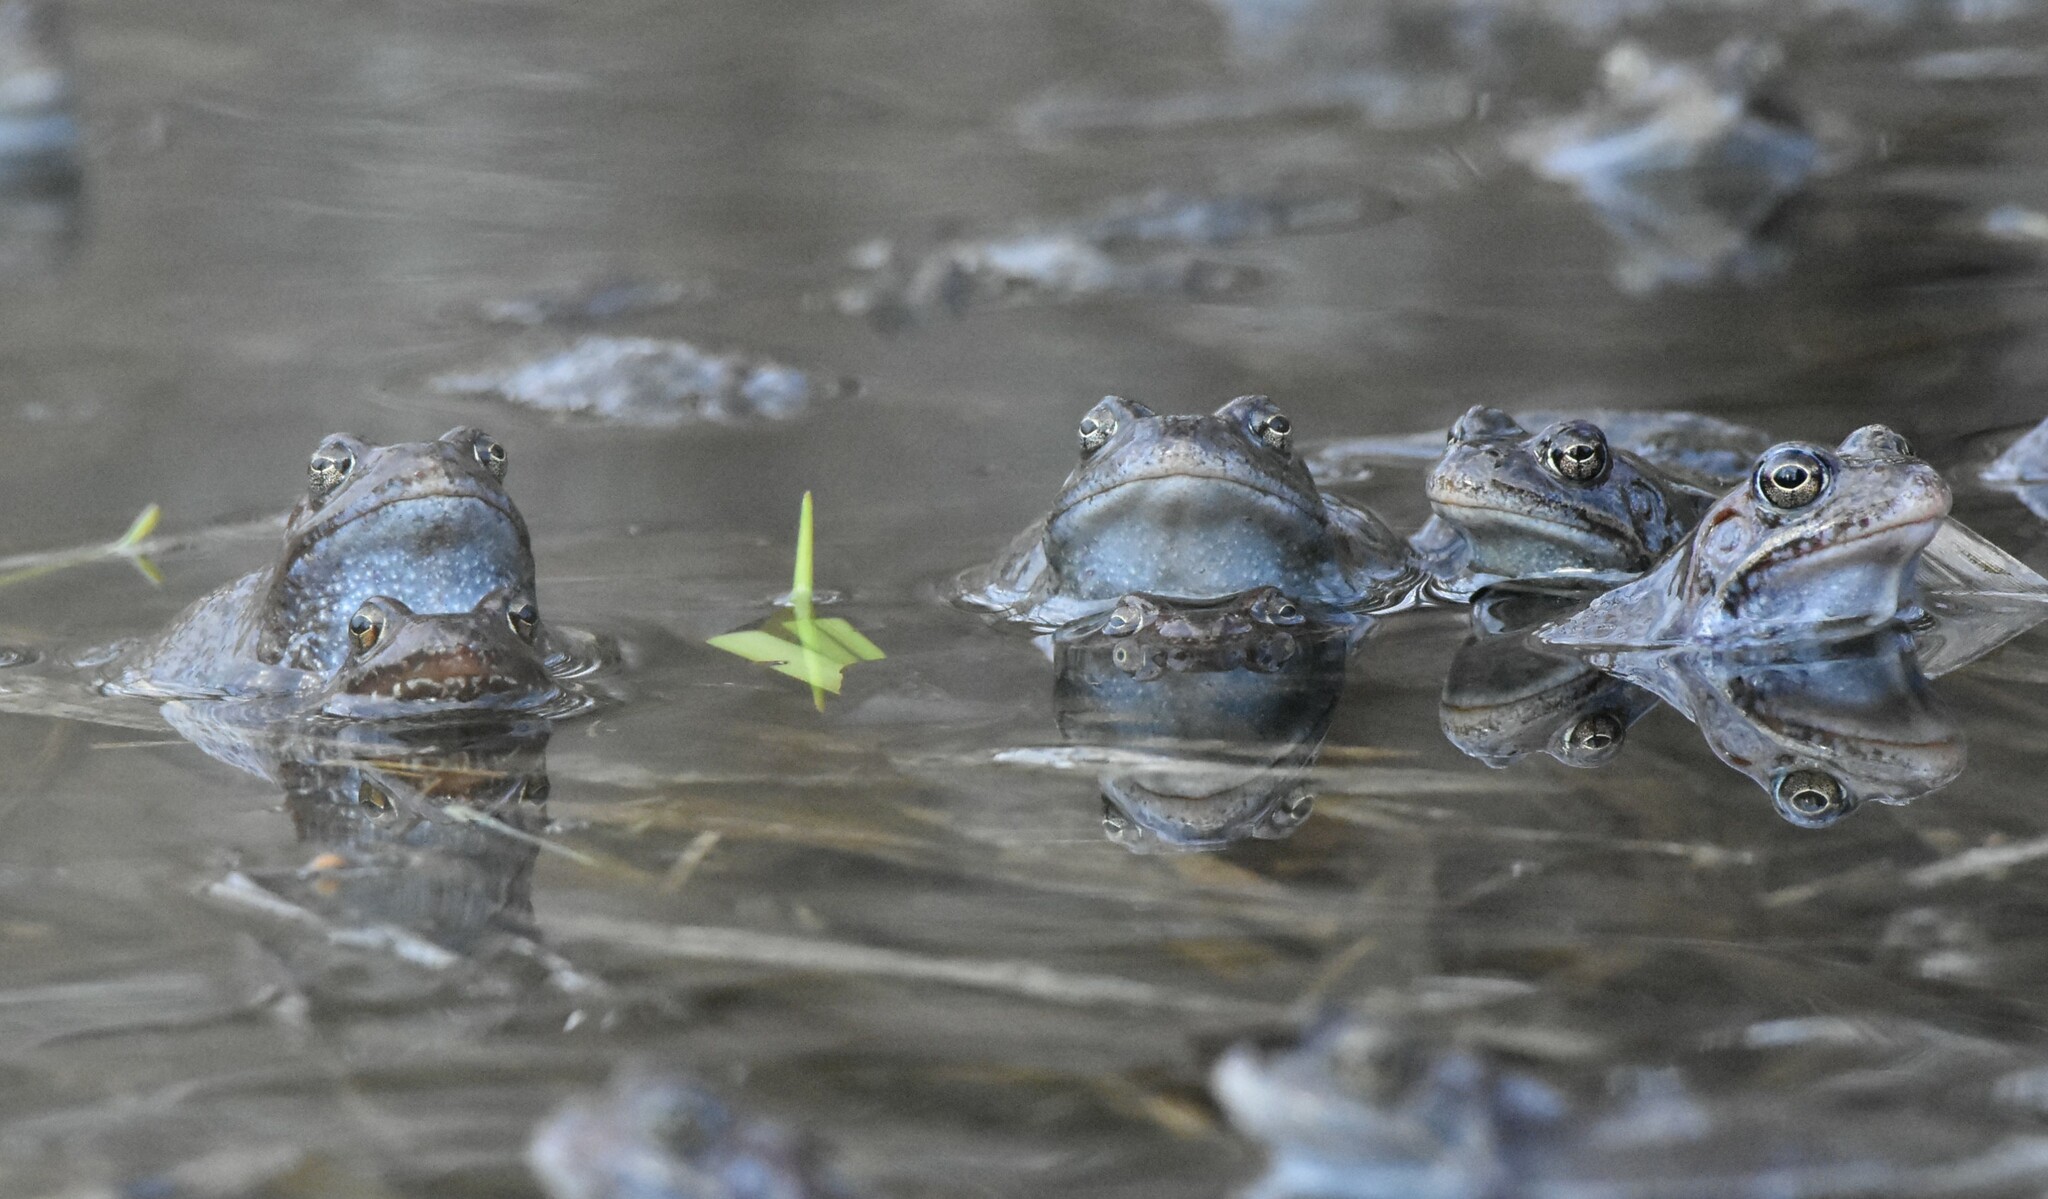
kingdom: Animalia
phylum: Chordata
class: Amphibia
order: Anura
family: Ranidae
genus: Rana
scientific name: Rana temporaria
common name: Common frog
